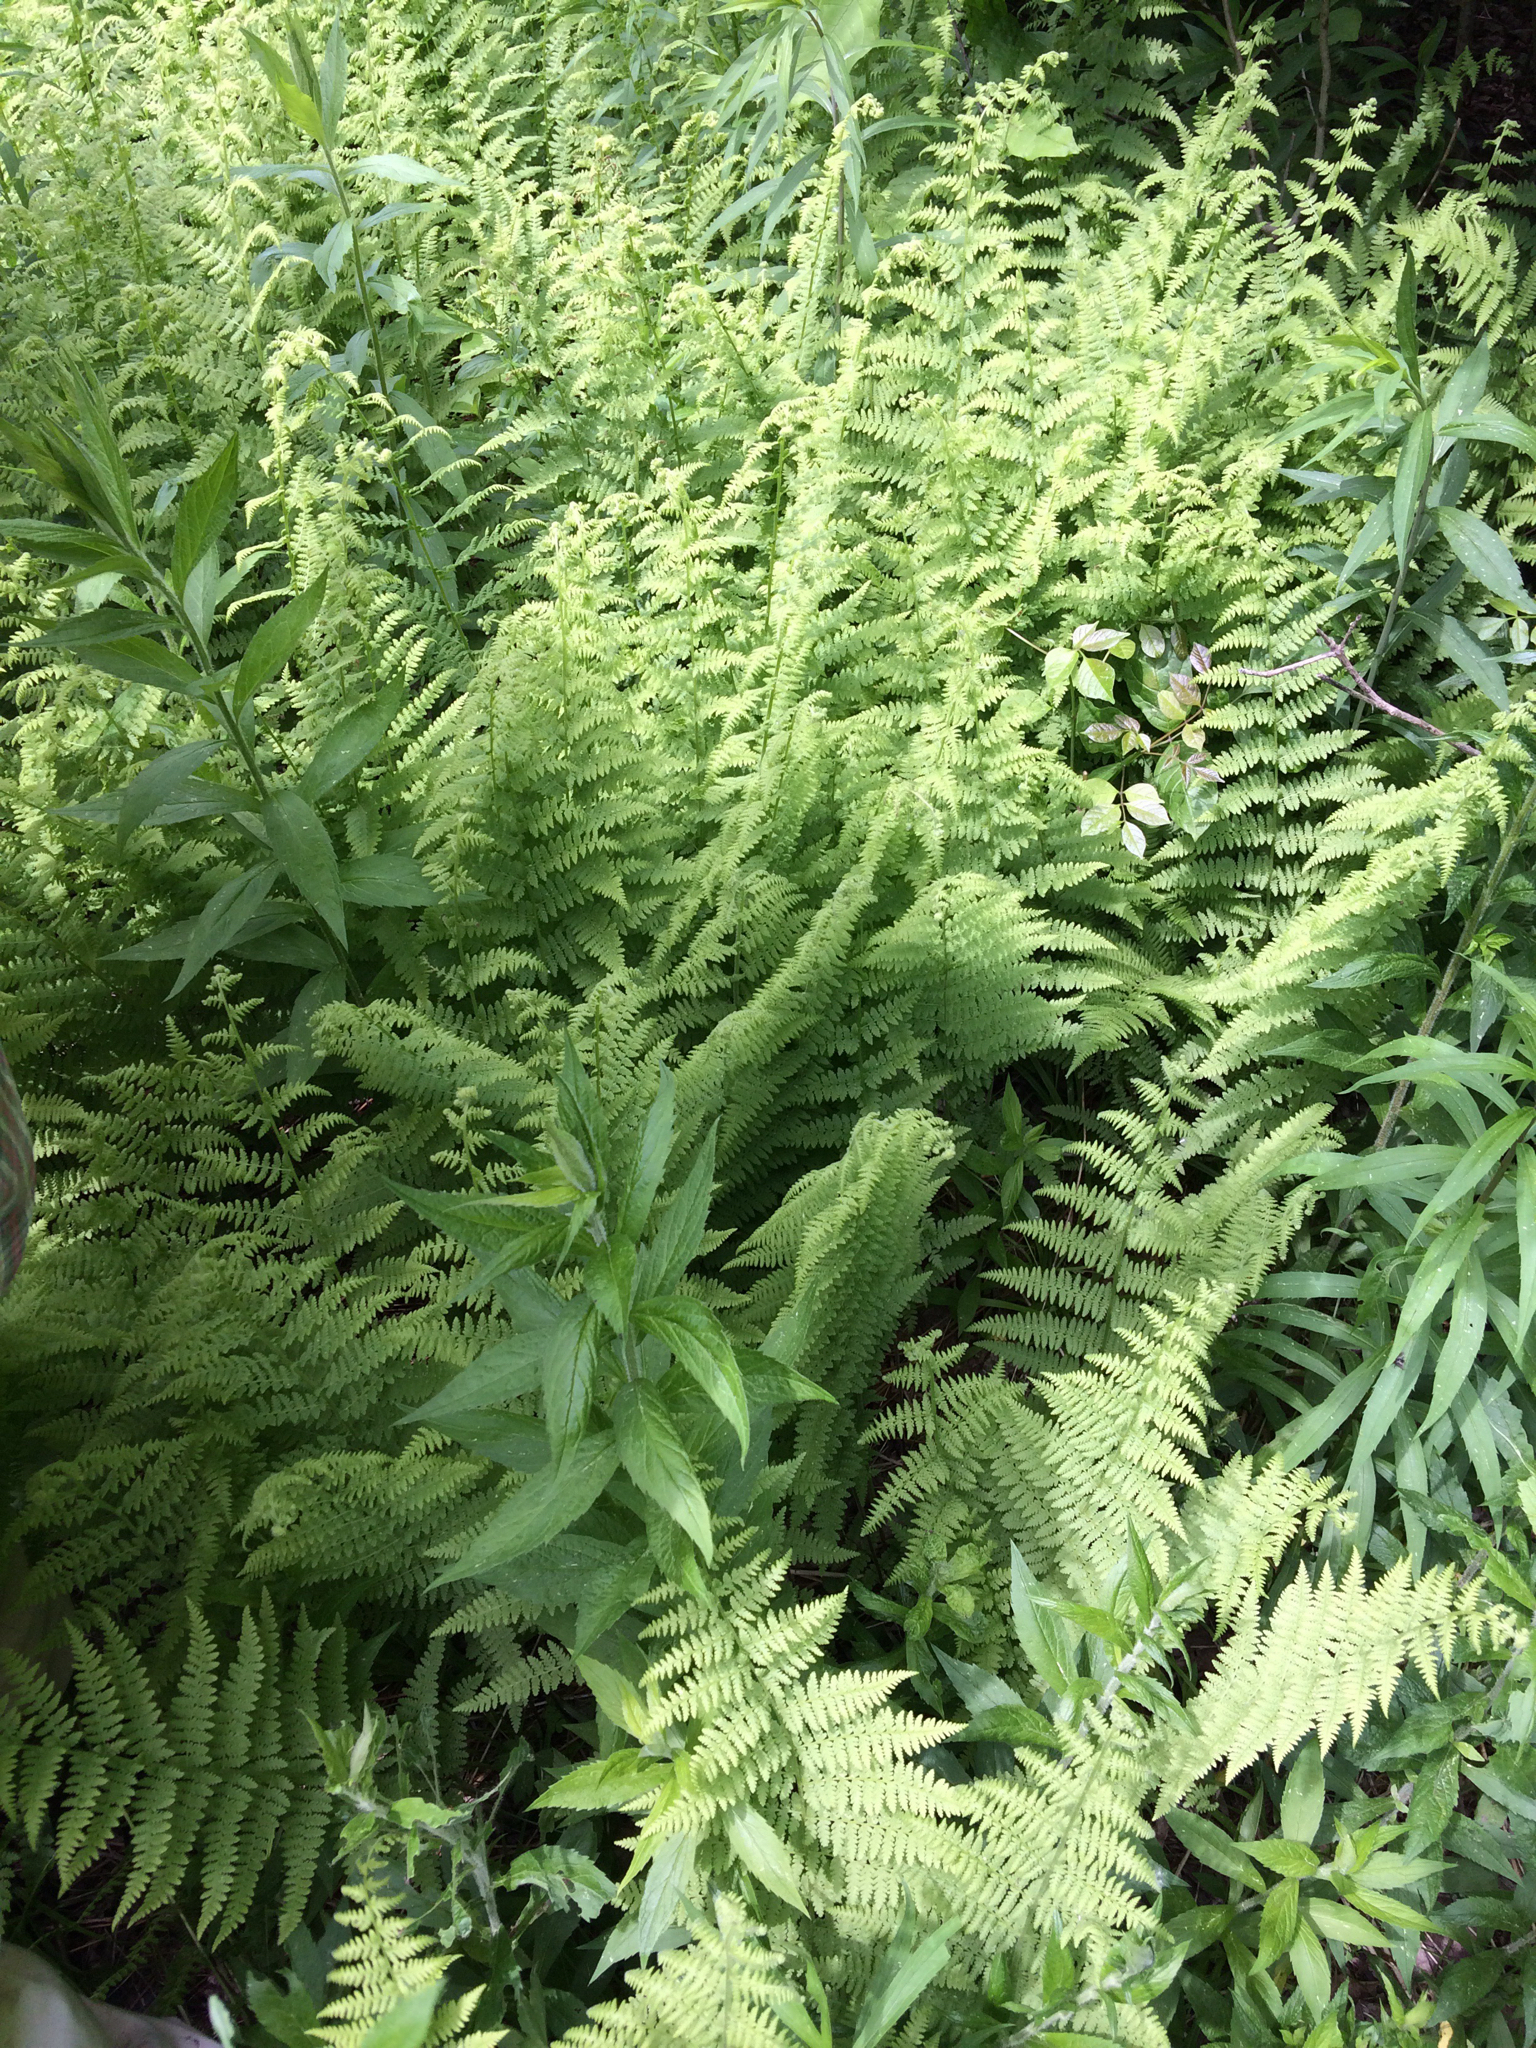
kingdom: Plantae
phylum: Tracheophyta
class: Polypodiopsida
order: Polypodiales
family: Dennstaedtiaceae
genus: Sitobolium
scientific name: Sitobolium punctilobum
